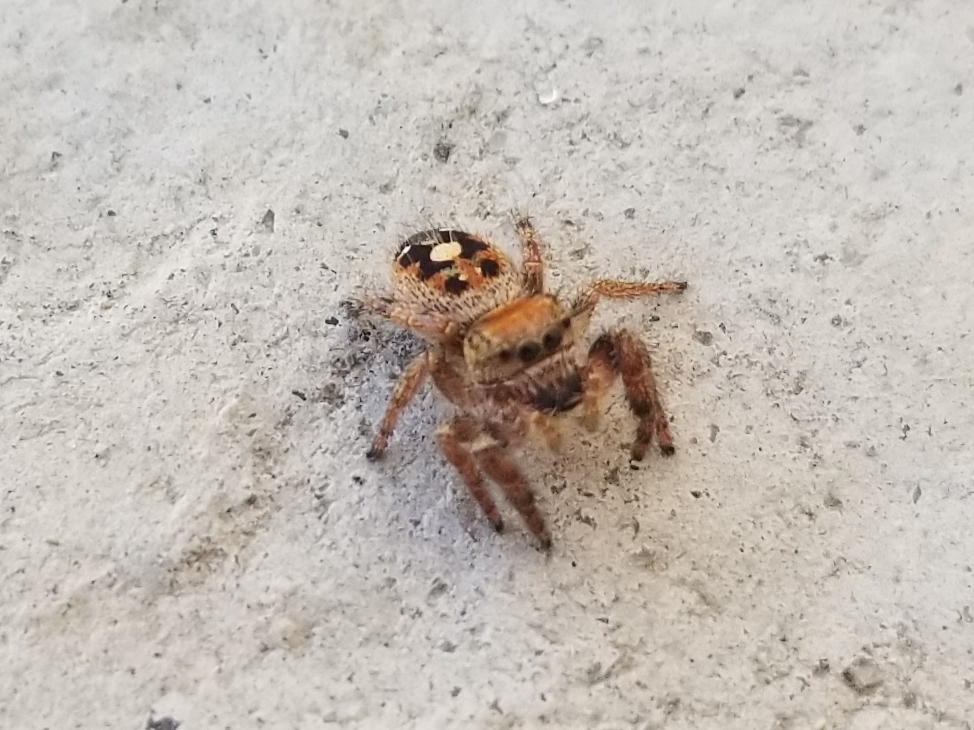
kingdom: Animalia
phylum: Arthropoda
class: Arachnida
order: Araneae
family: Salticidae
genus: Phidippus
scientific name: Phidippus
